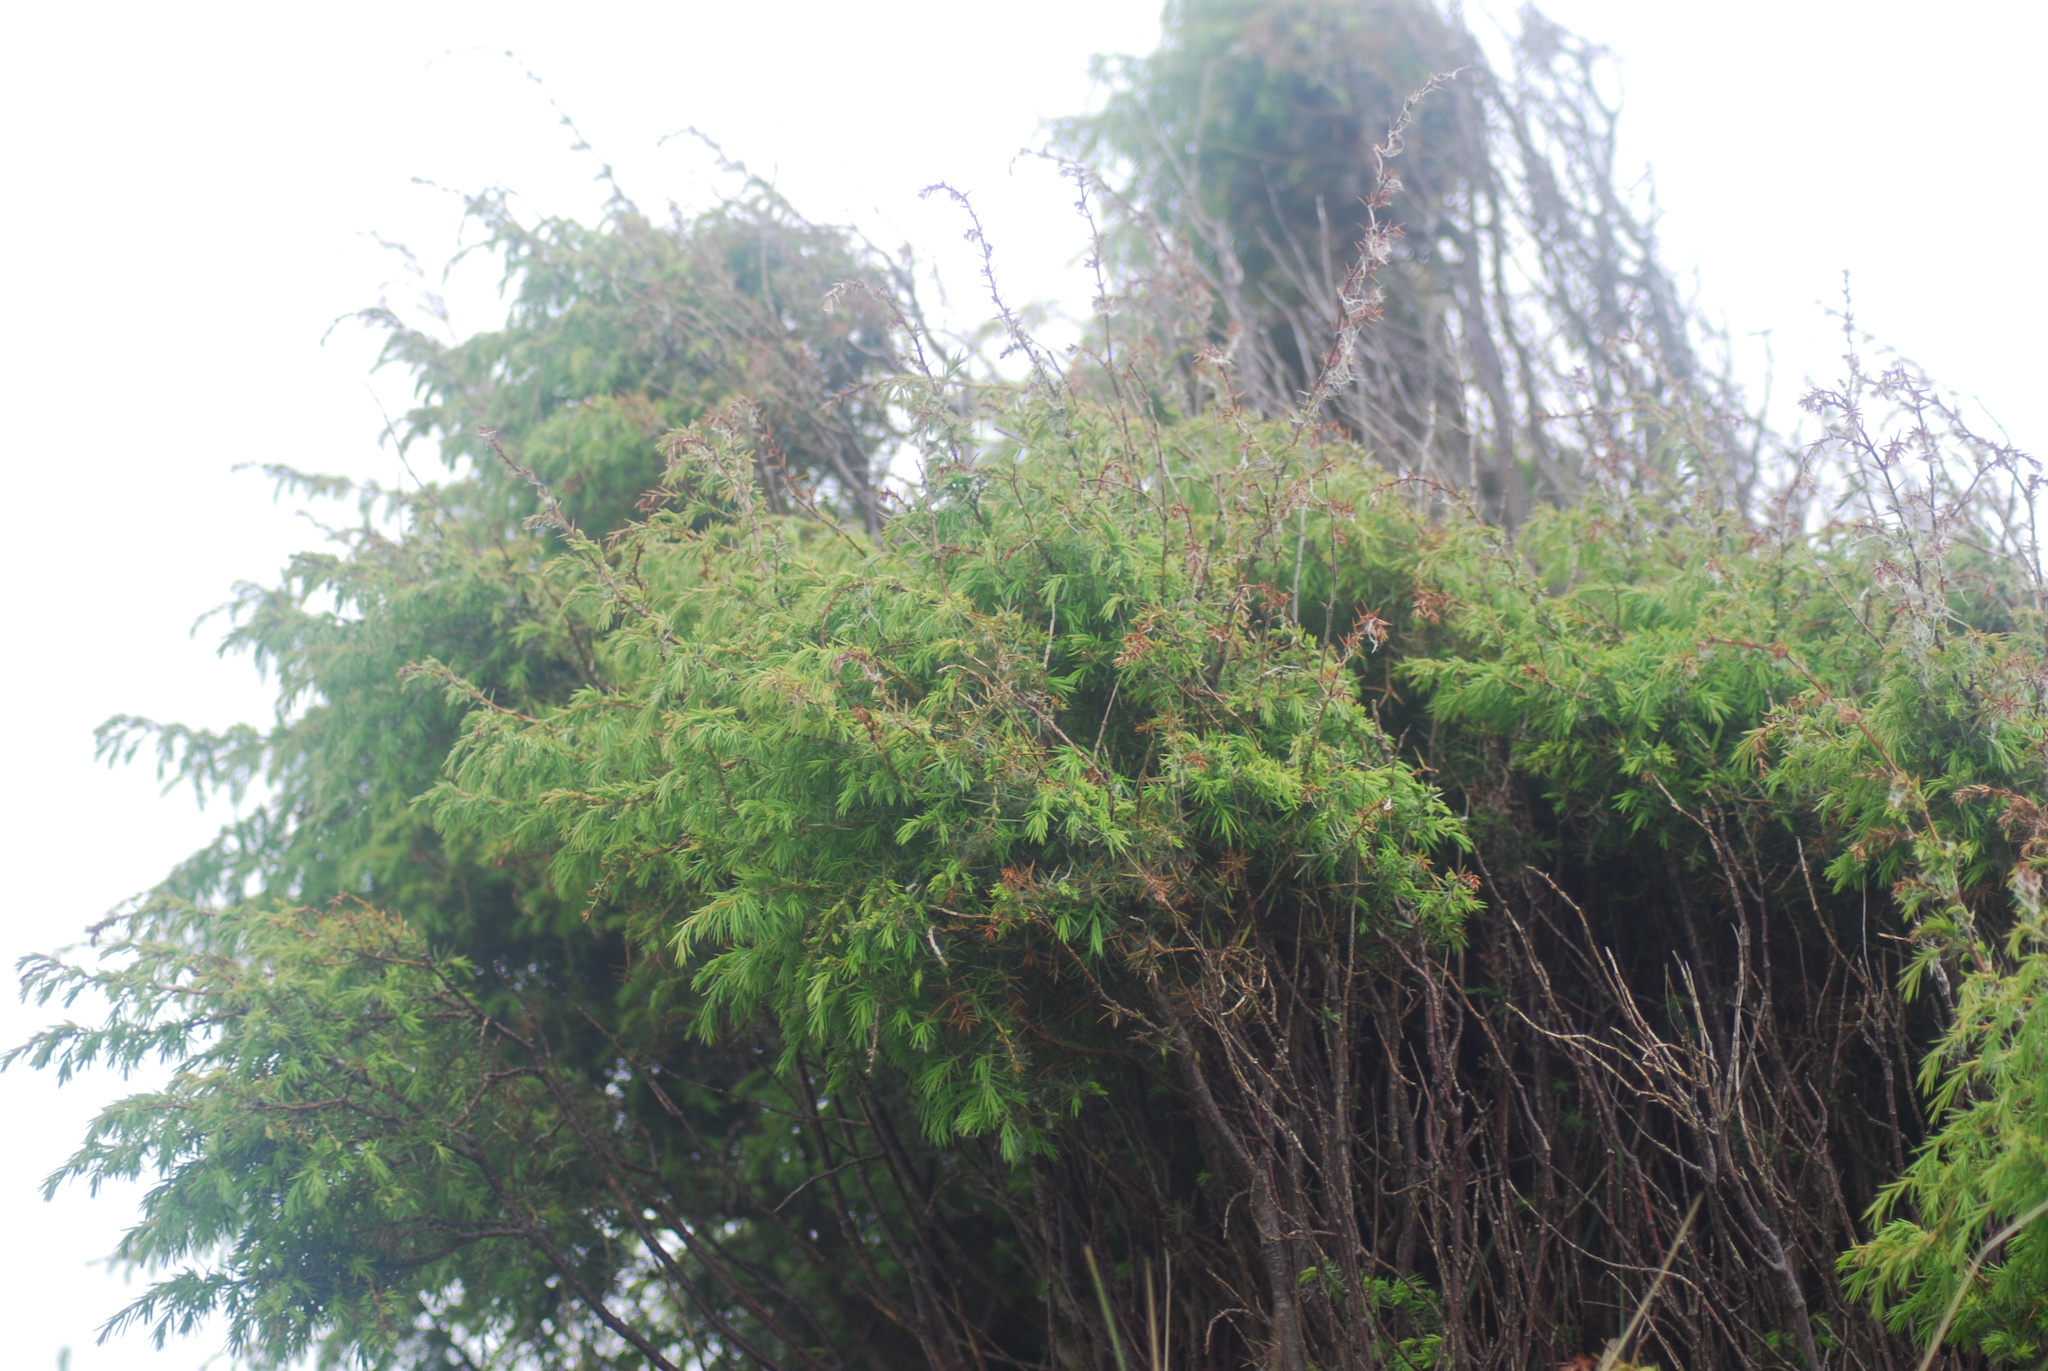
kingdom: Plantae
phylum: Tracheophyta
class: Pinopsida
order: Pinales
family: Cupressaceae
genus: Juniperus
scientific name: Juniperus communis
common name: Common juniper
